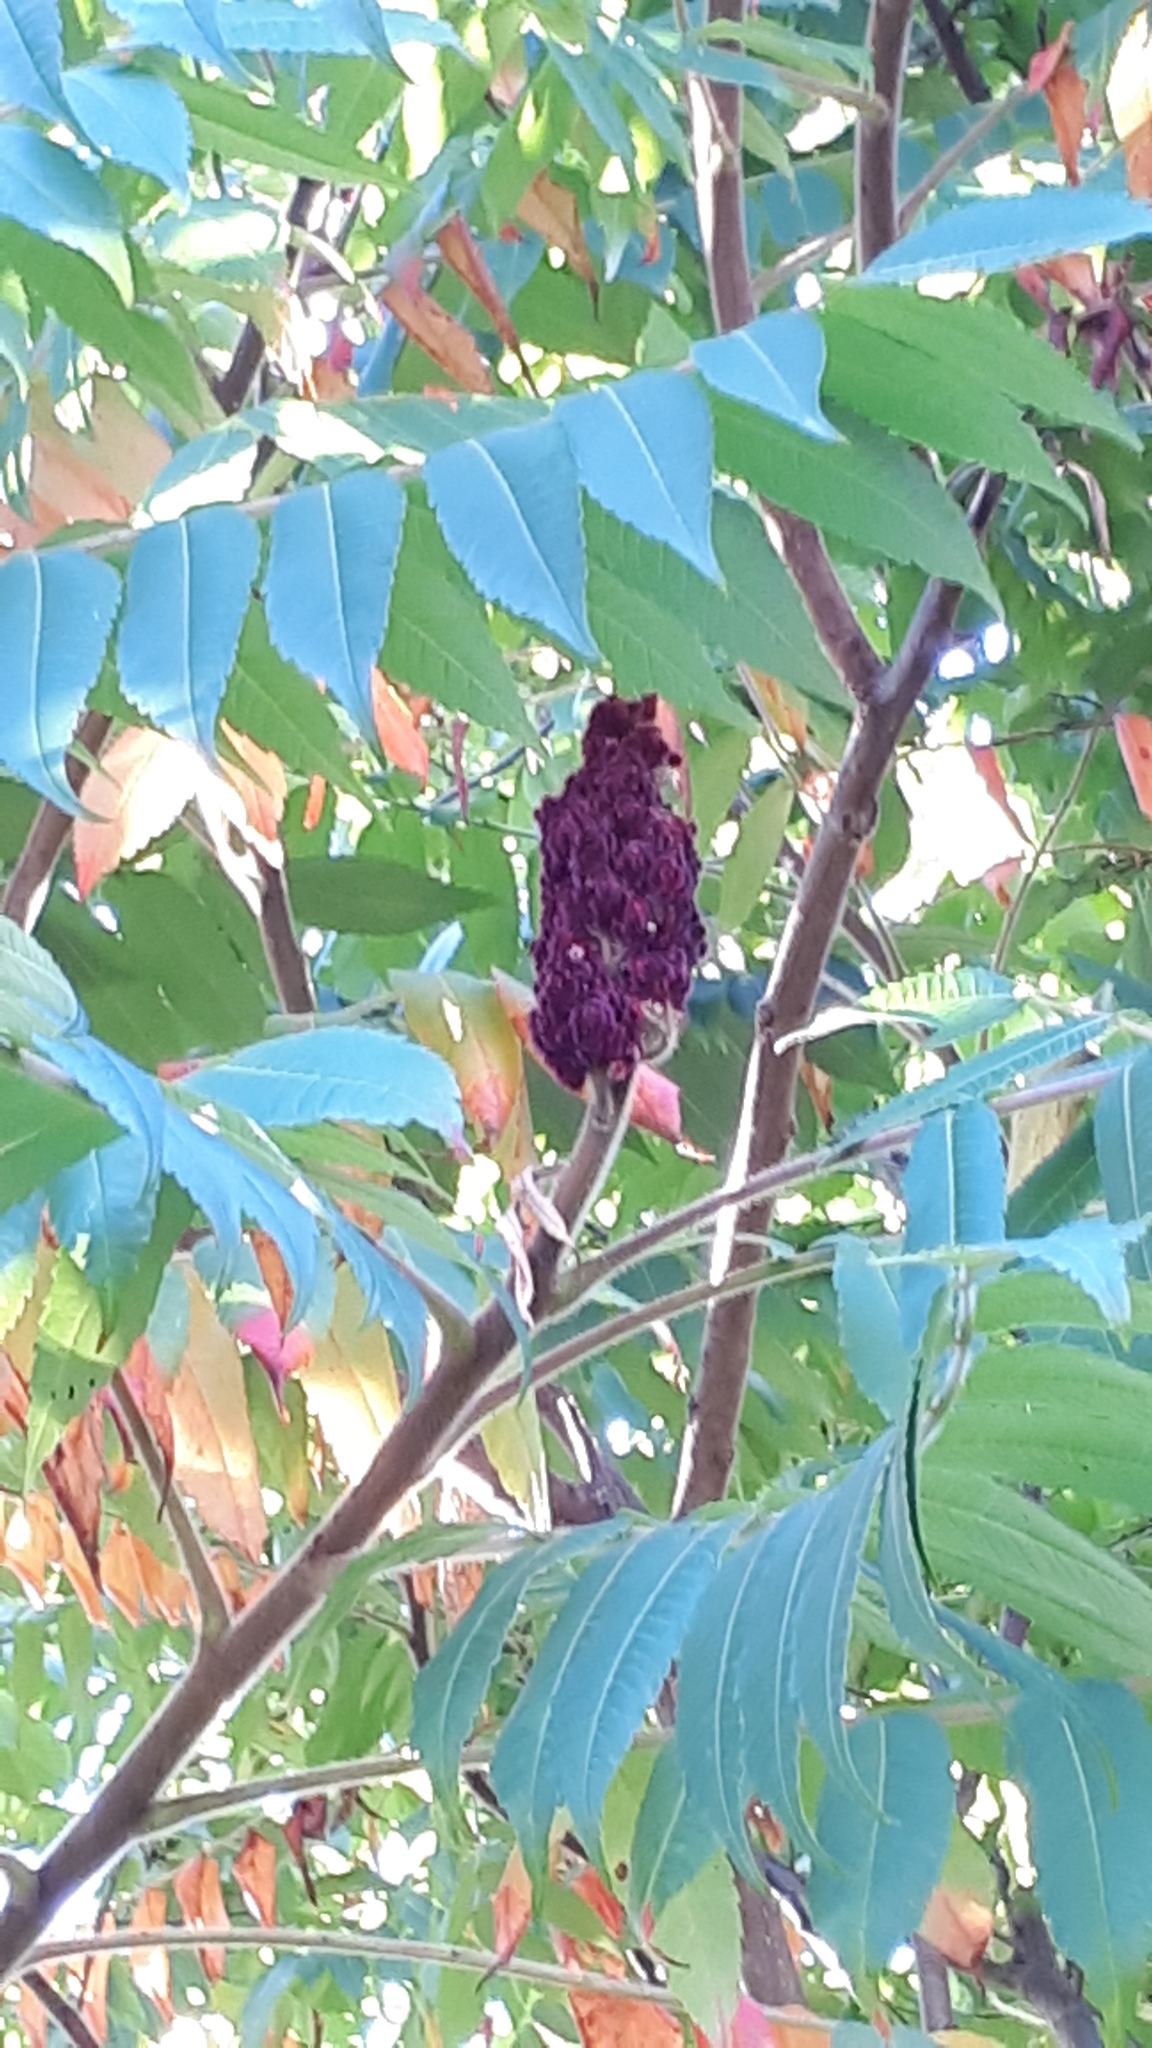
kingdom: Plantae
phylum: Tracheophyta
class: Magnoliopsida
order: Sapindales
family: Anacardiaceae
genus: Rhus
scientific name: Rhus typhina
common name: Staghorn sumac
